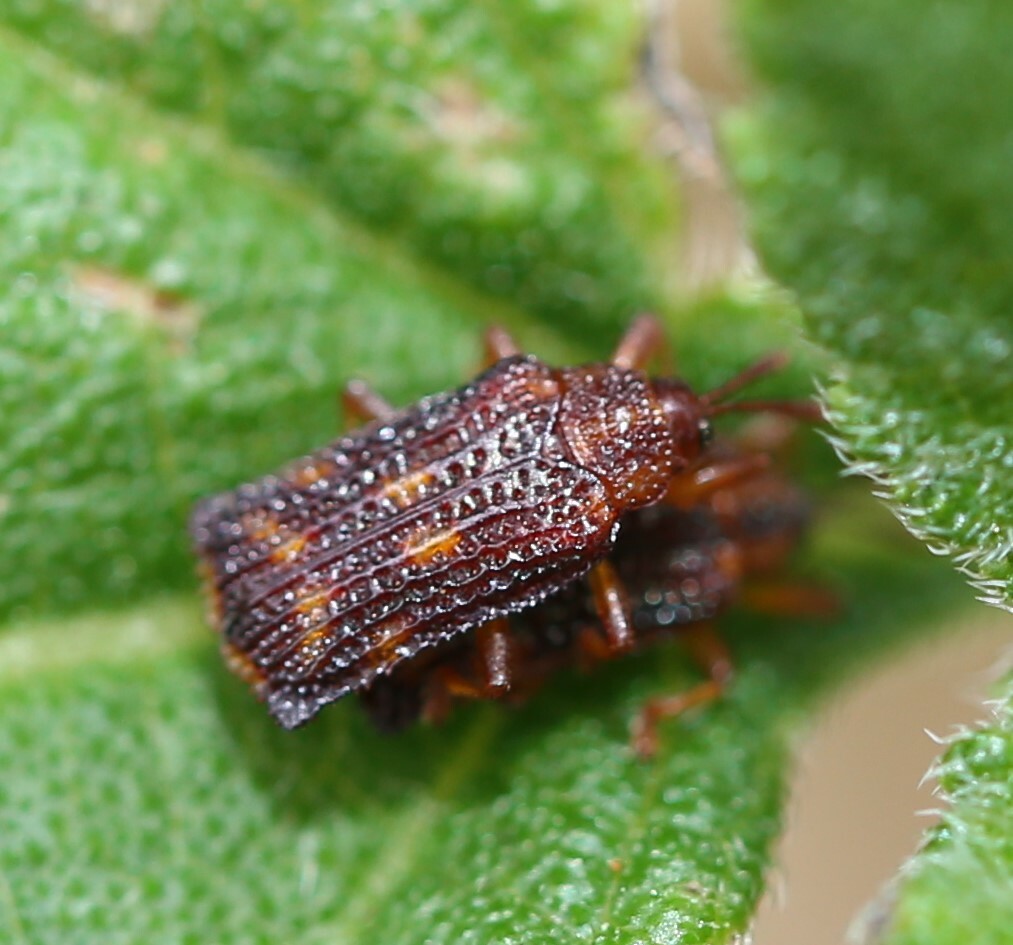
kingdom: Animalia
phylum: Arthropoda
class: Insecta
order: Coleoptera
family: Chrysomelidae
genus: Uroplata
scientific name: Uroplata girardi
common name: Lantana leafminer
